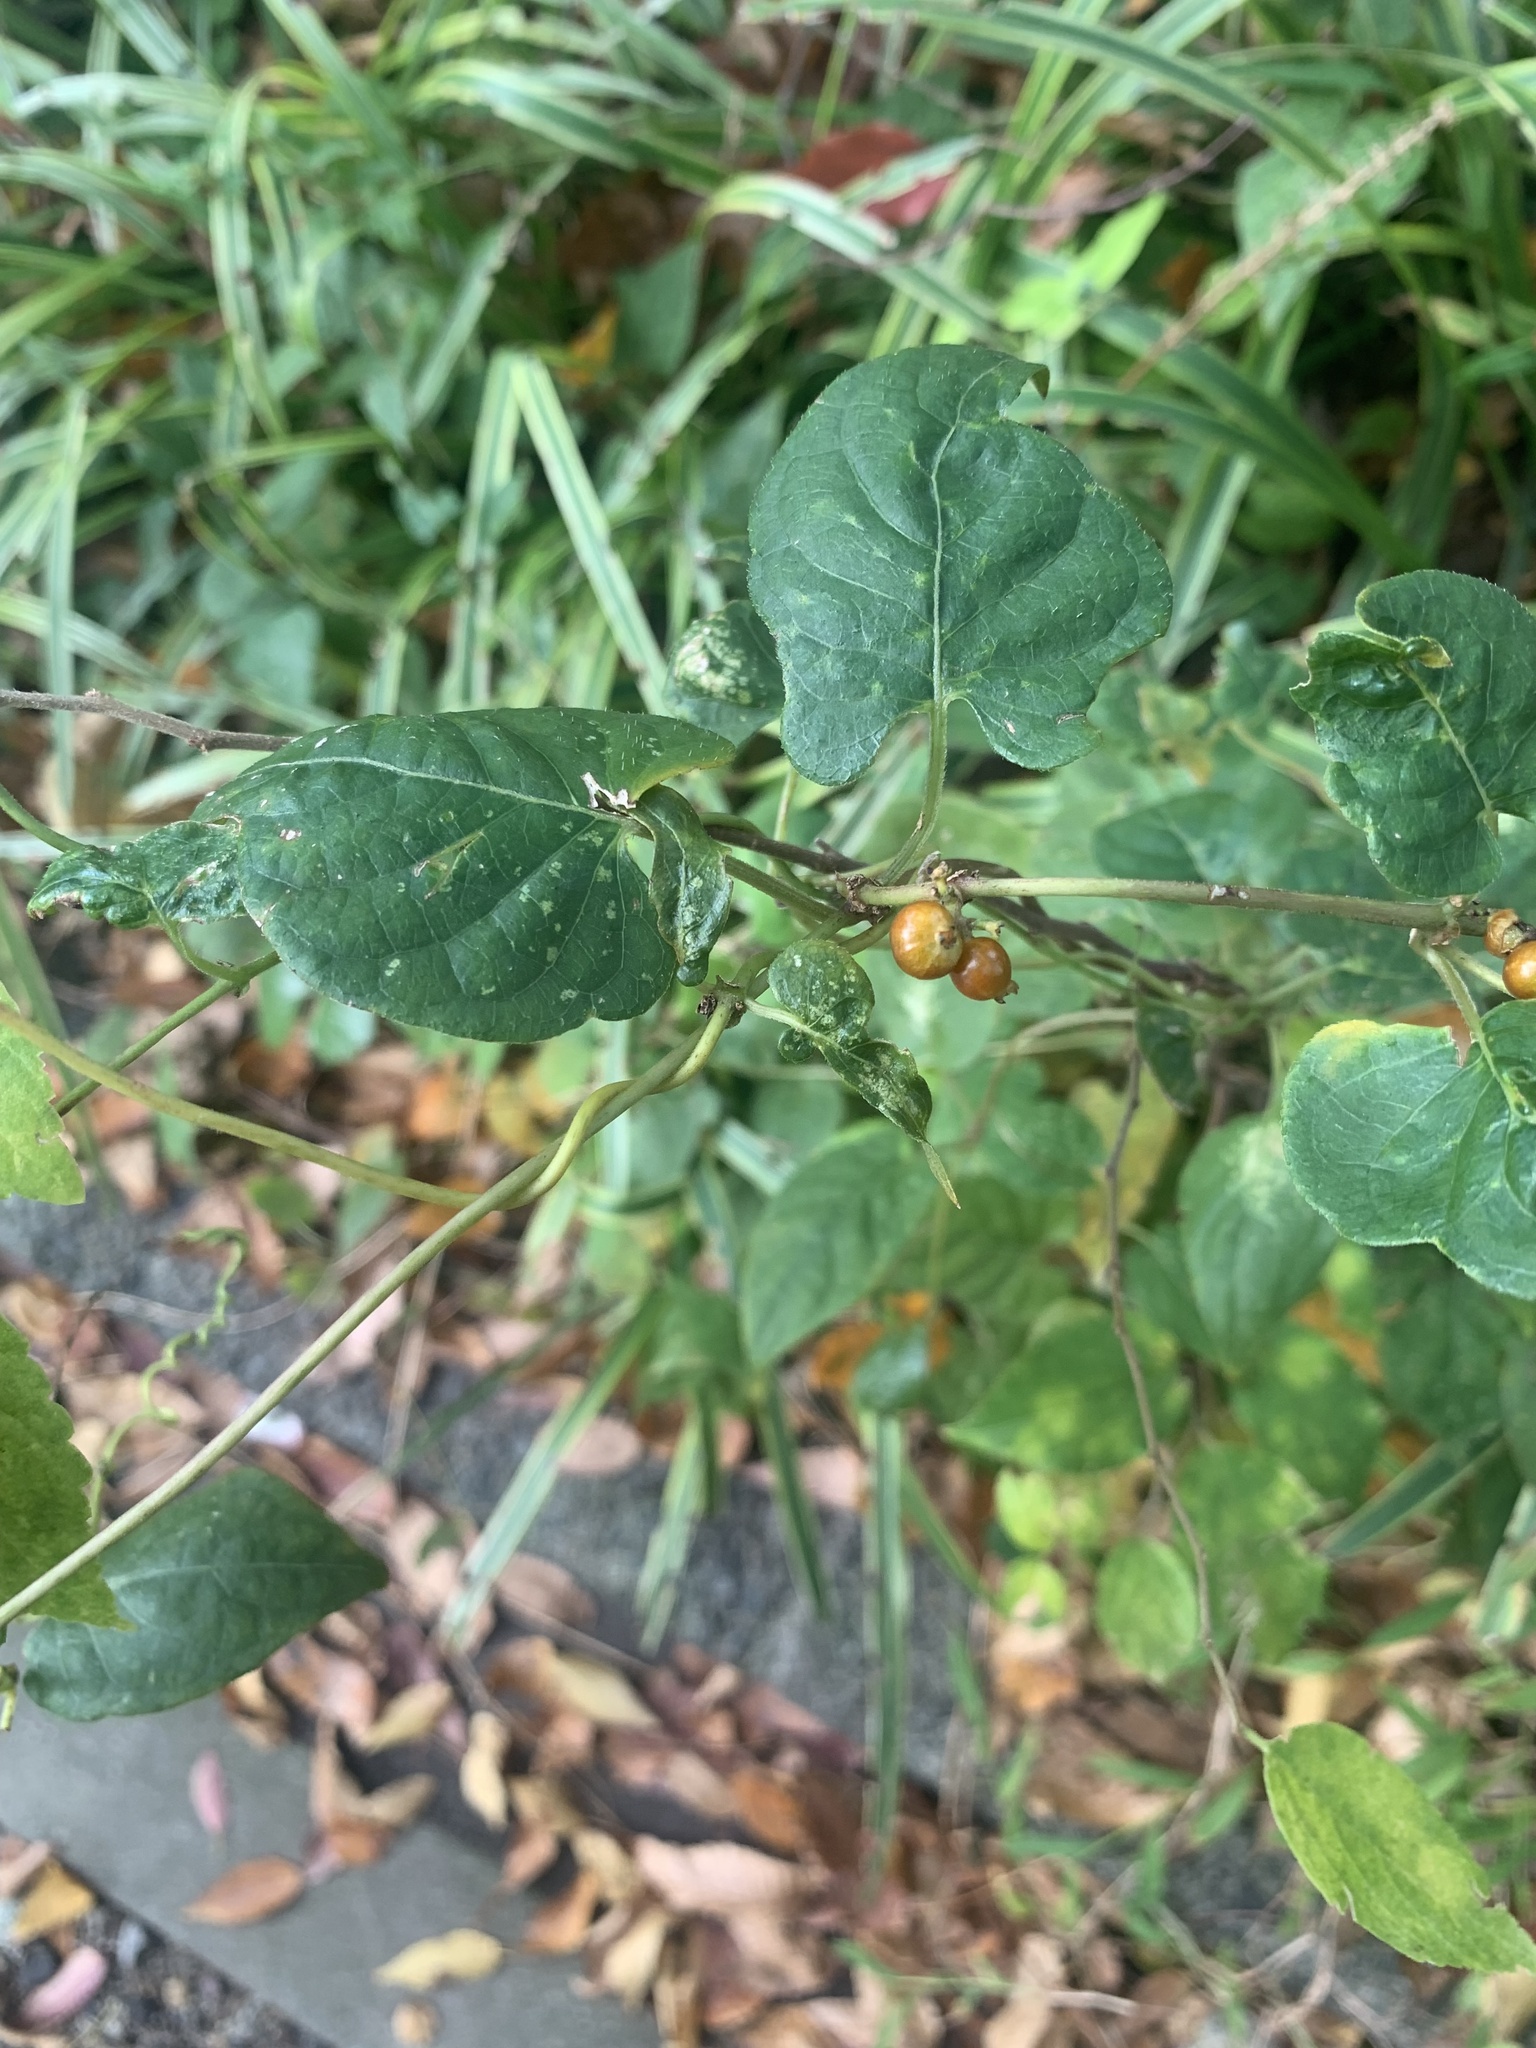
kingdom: Plantae
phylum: Tracheophyta
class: Magnoliopsida
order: Gentianales
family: Rubiaceae
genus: Paederia
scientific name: Paederia foetida
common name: Stinkvine
